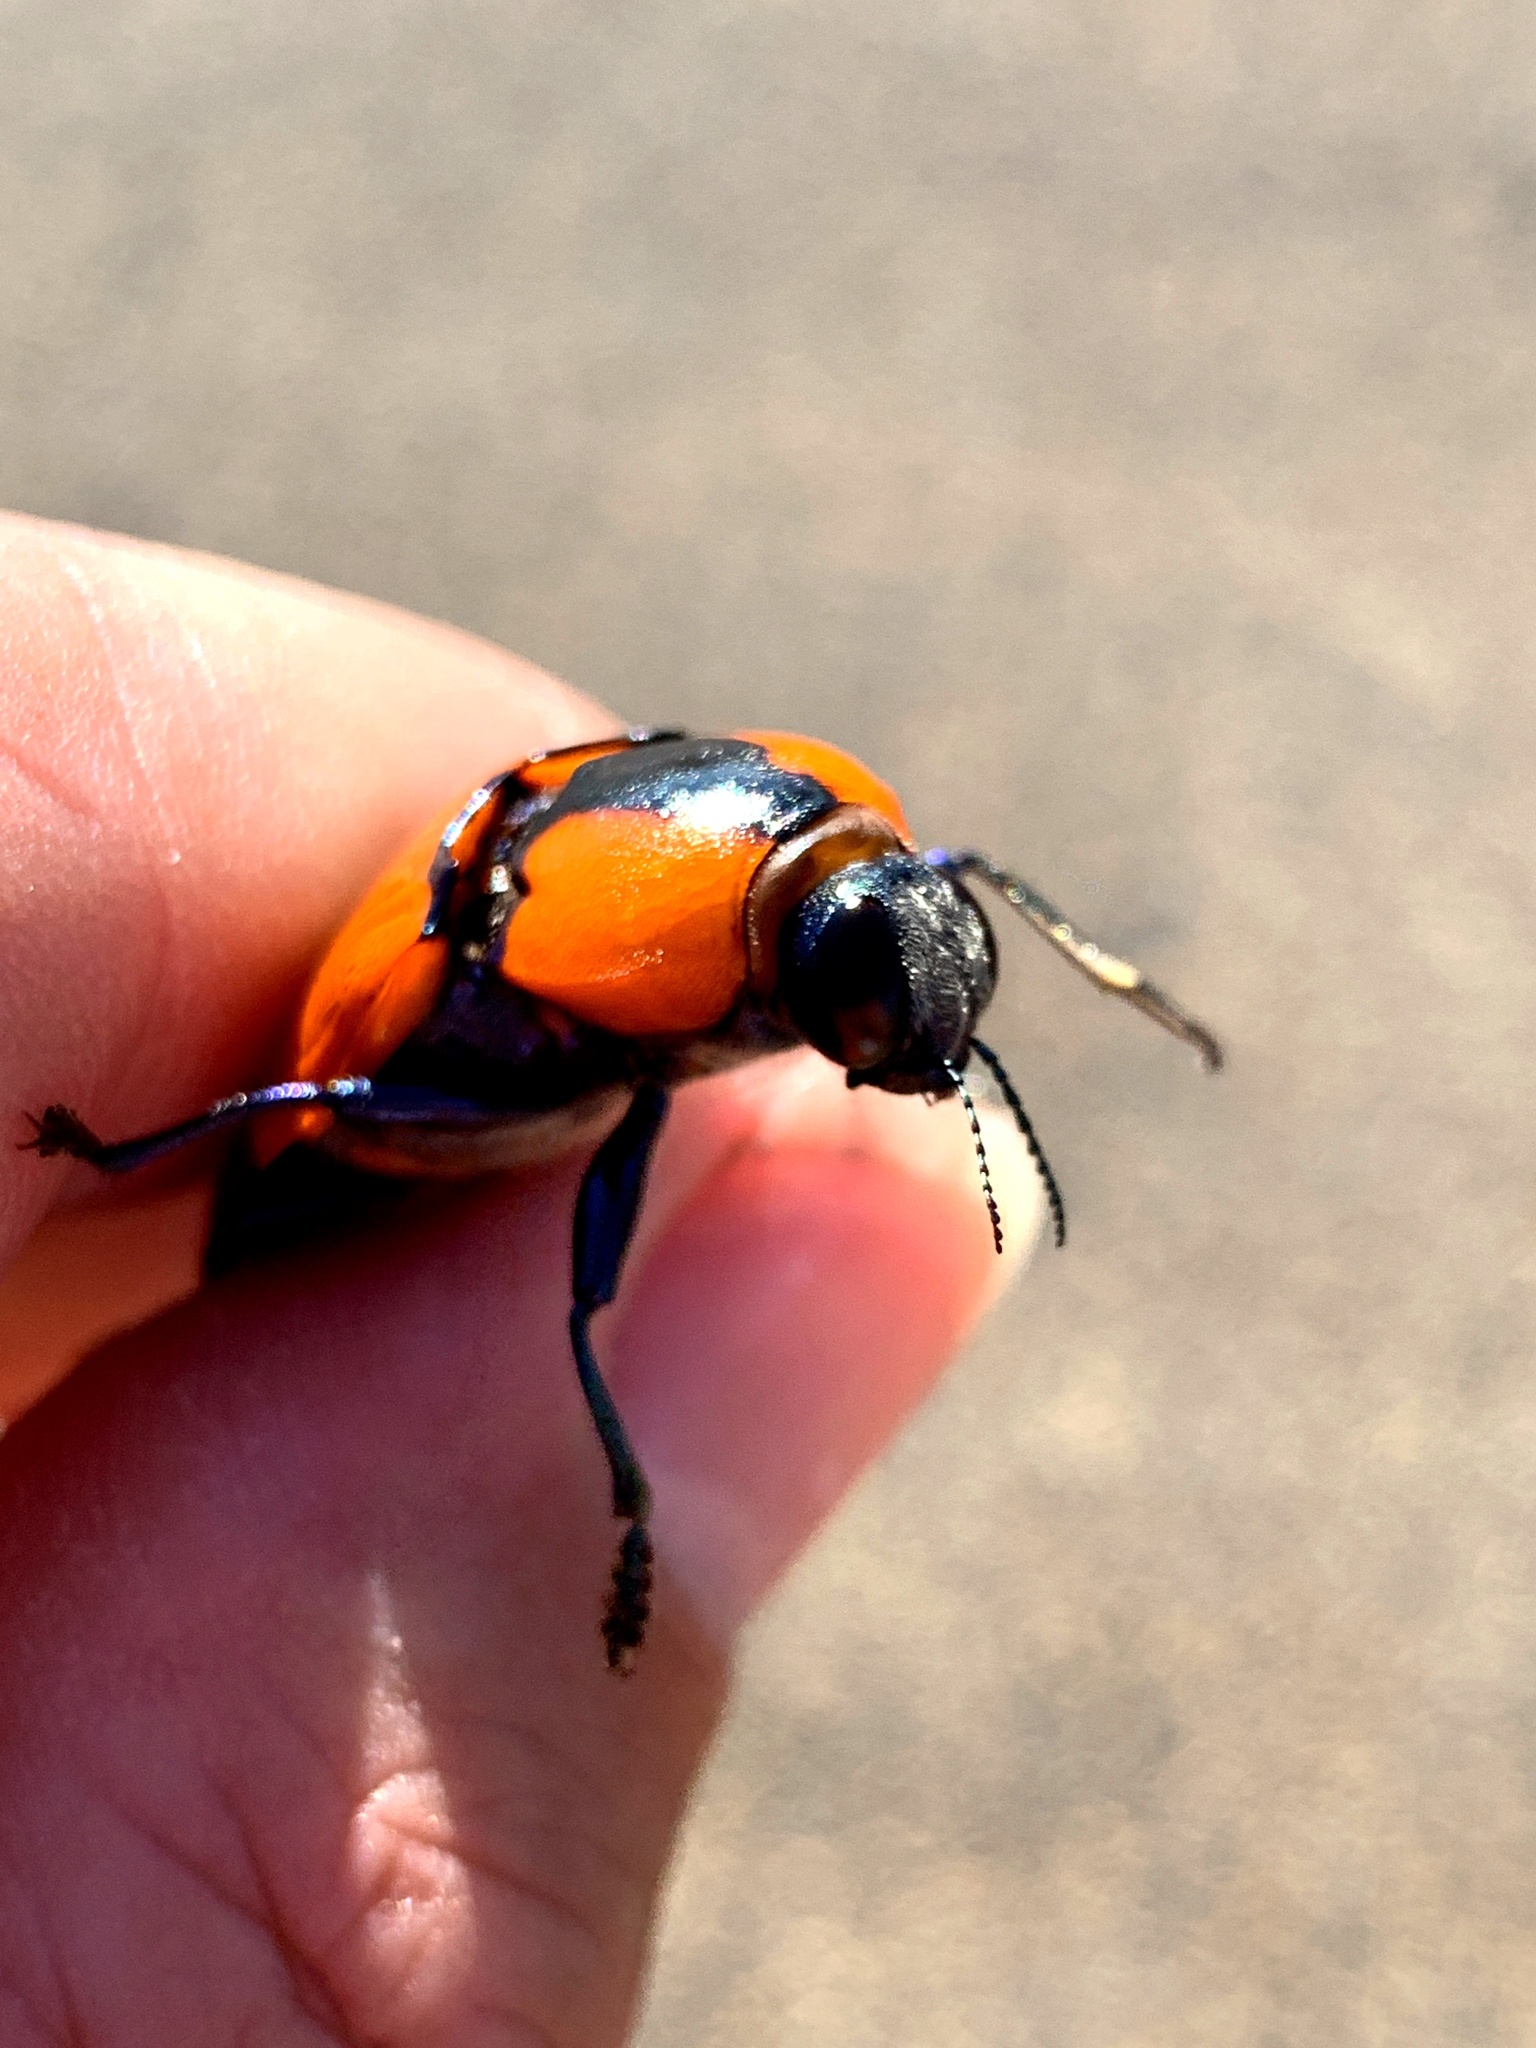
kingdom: Animalia
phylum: Arthropoda
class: Insecta
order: Coleoptera
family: Buprestidae
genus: Temognatha
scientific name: Temognatha vitticollis
